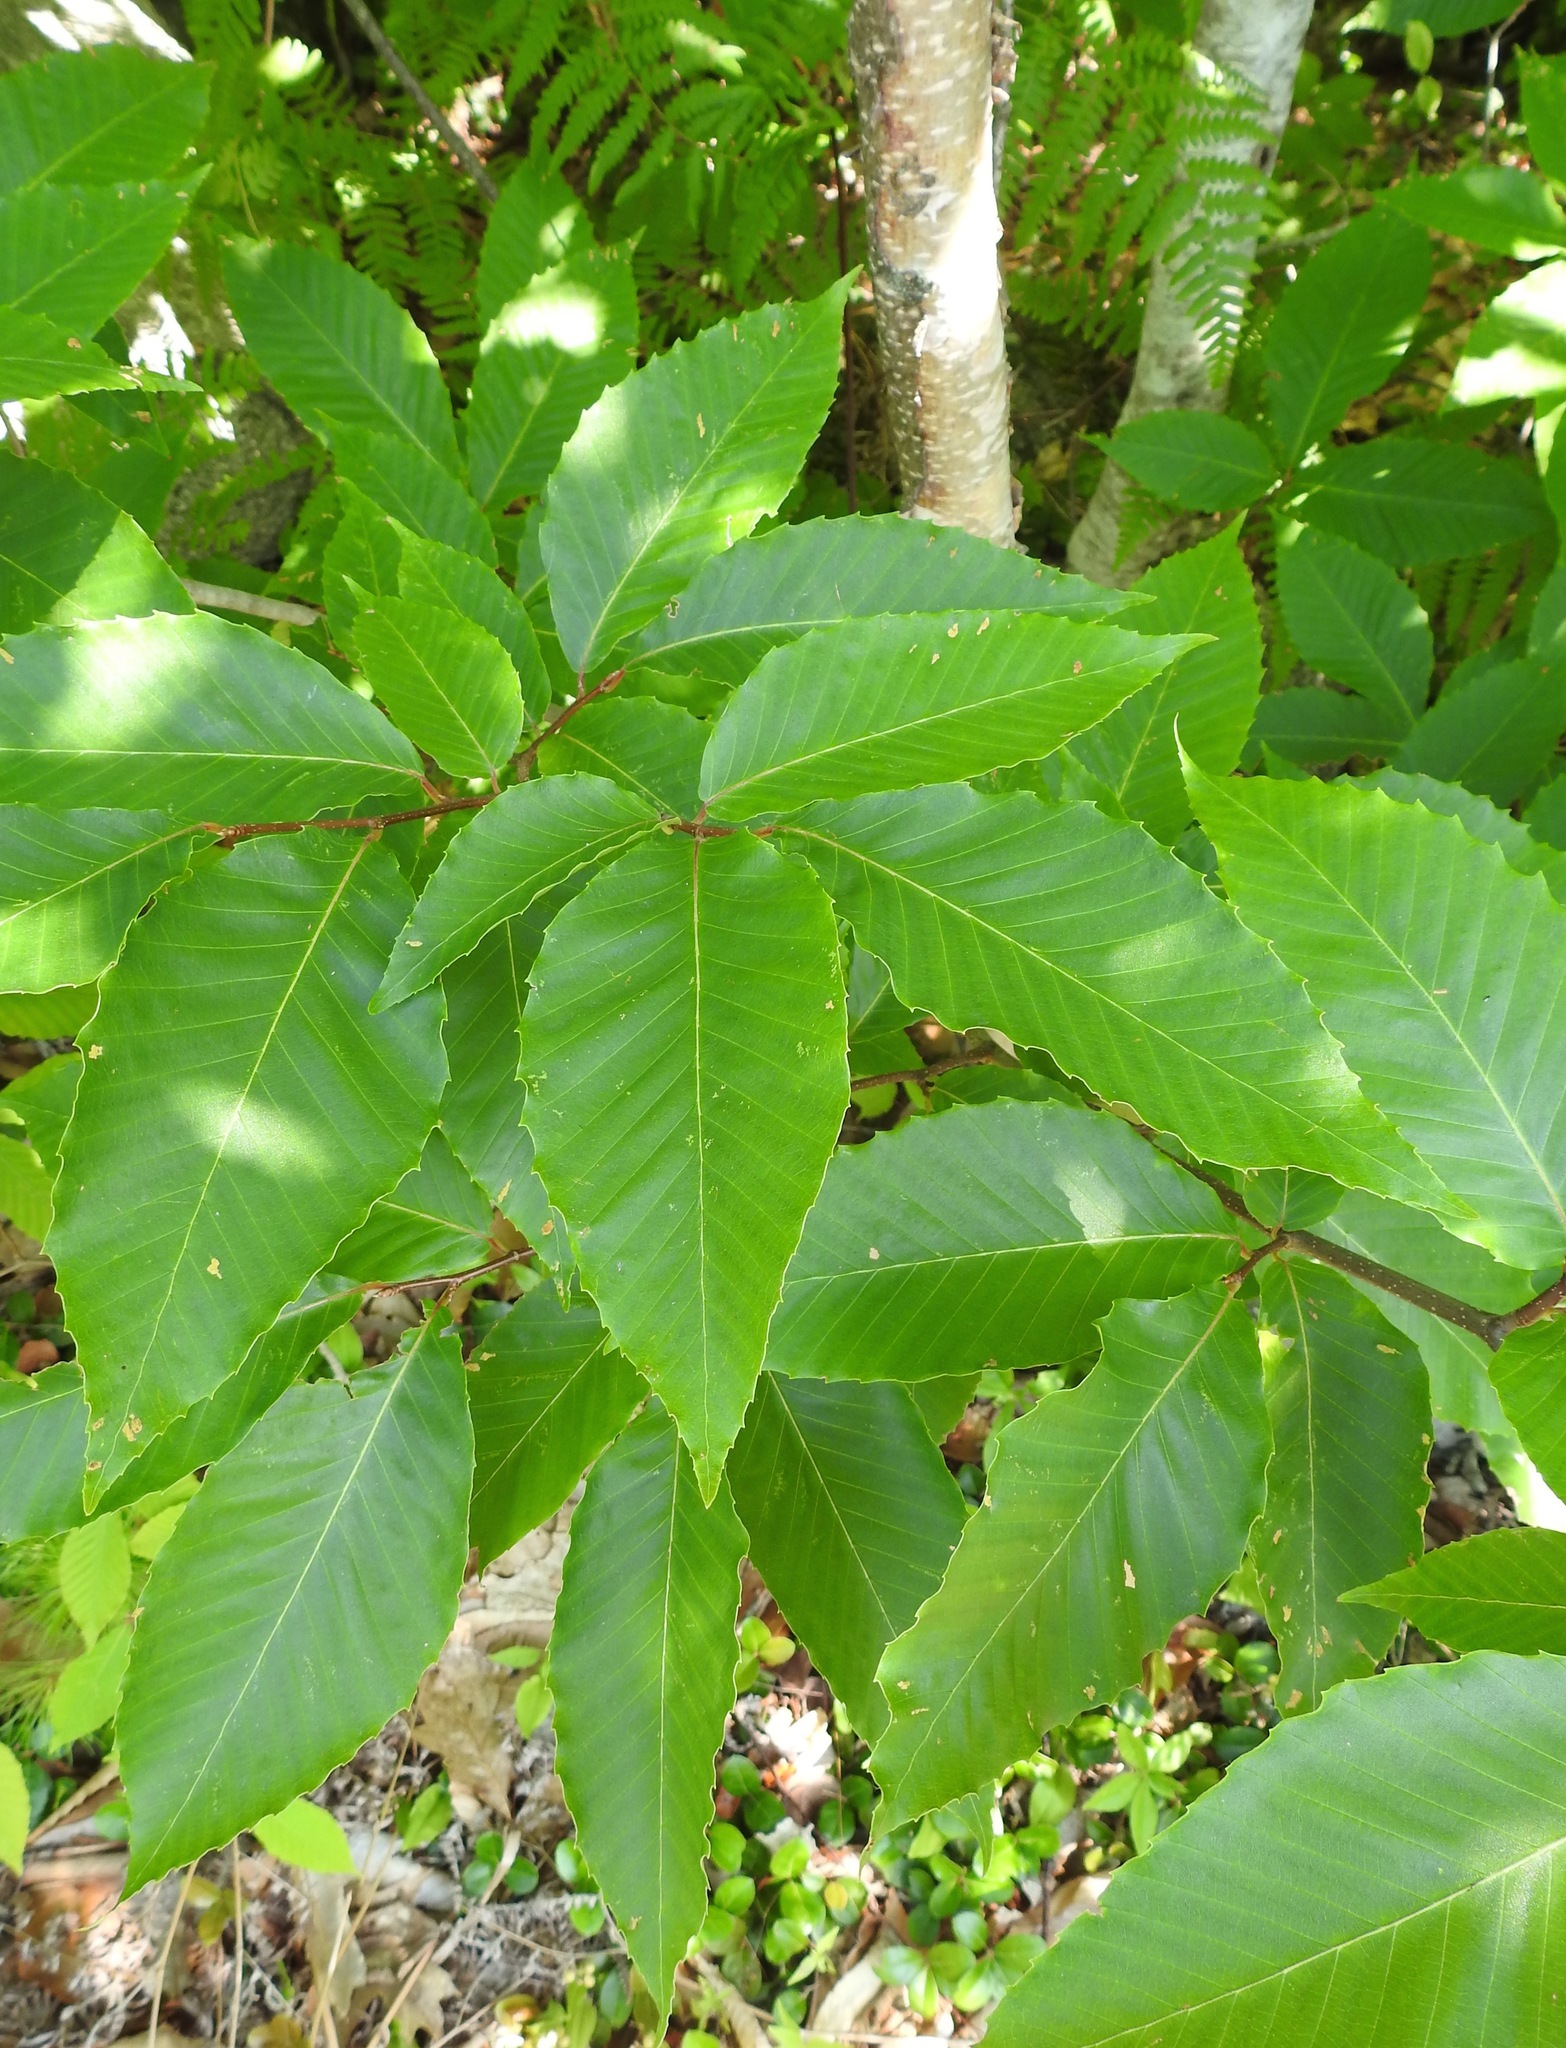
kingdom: Plantae
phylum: Tracheophyta
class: Magnoliopsida
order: Fagales
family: Fagaceae
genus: Fagus
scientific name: Fagus grandifolia
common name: American beech
